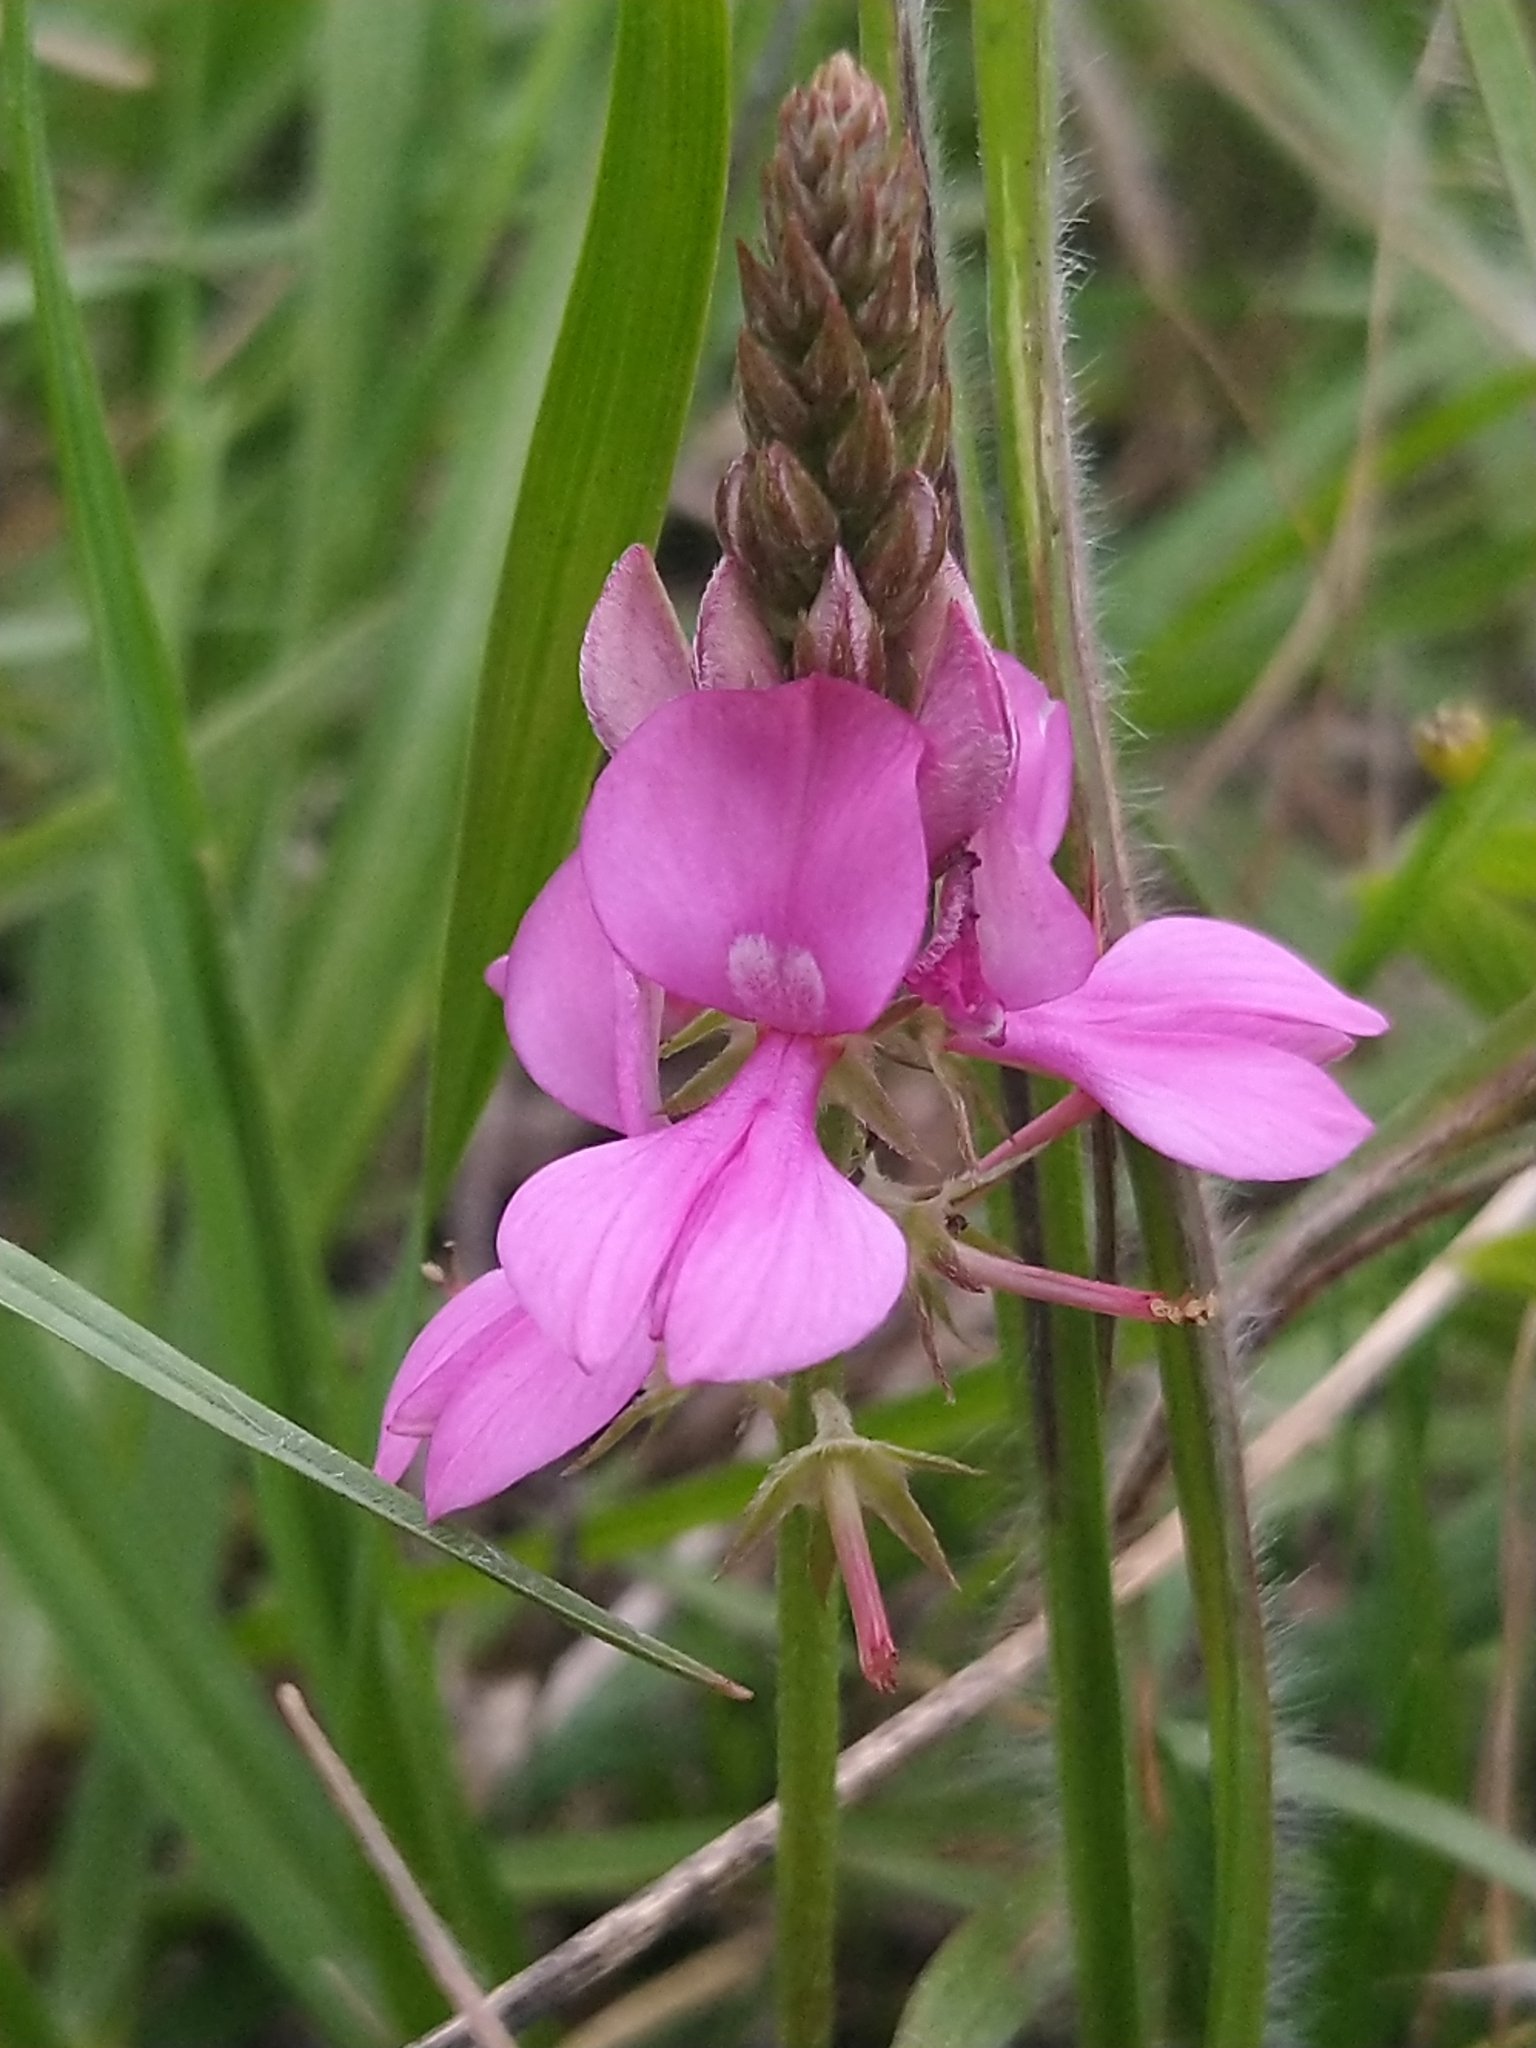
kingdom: Plantae
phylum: Tracheophyta
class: Magnoliopsida
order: Fabales
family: Fabaceae
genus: Indigofera
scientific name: Indigofera guaranitica
